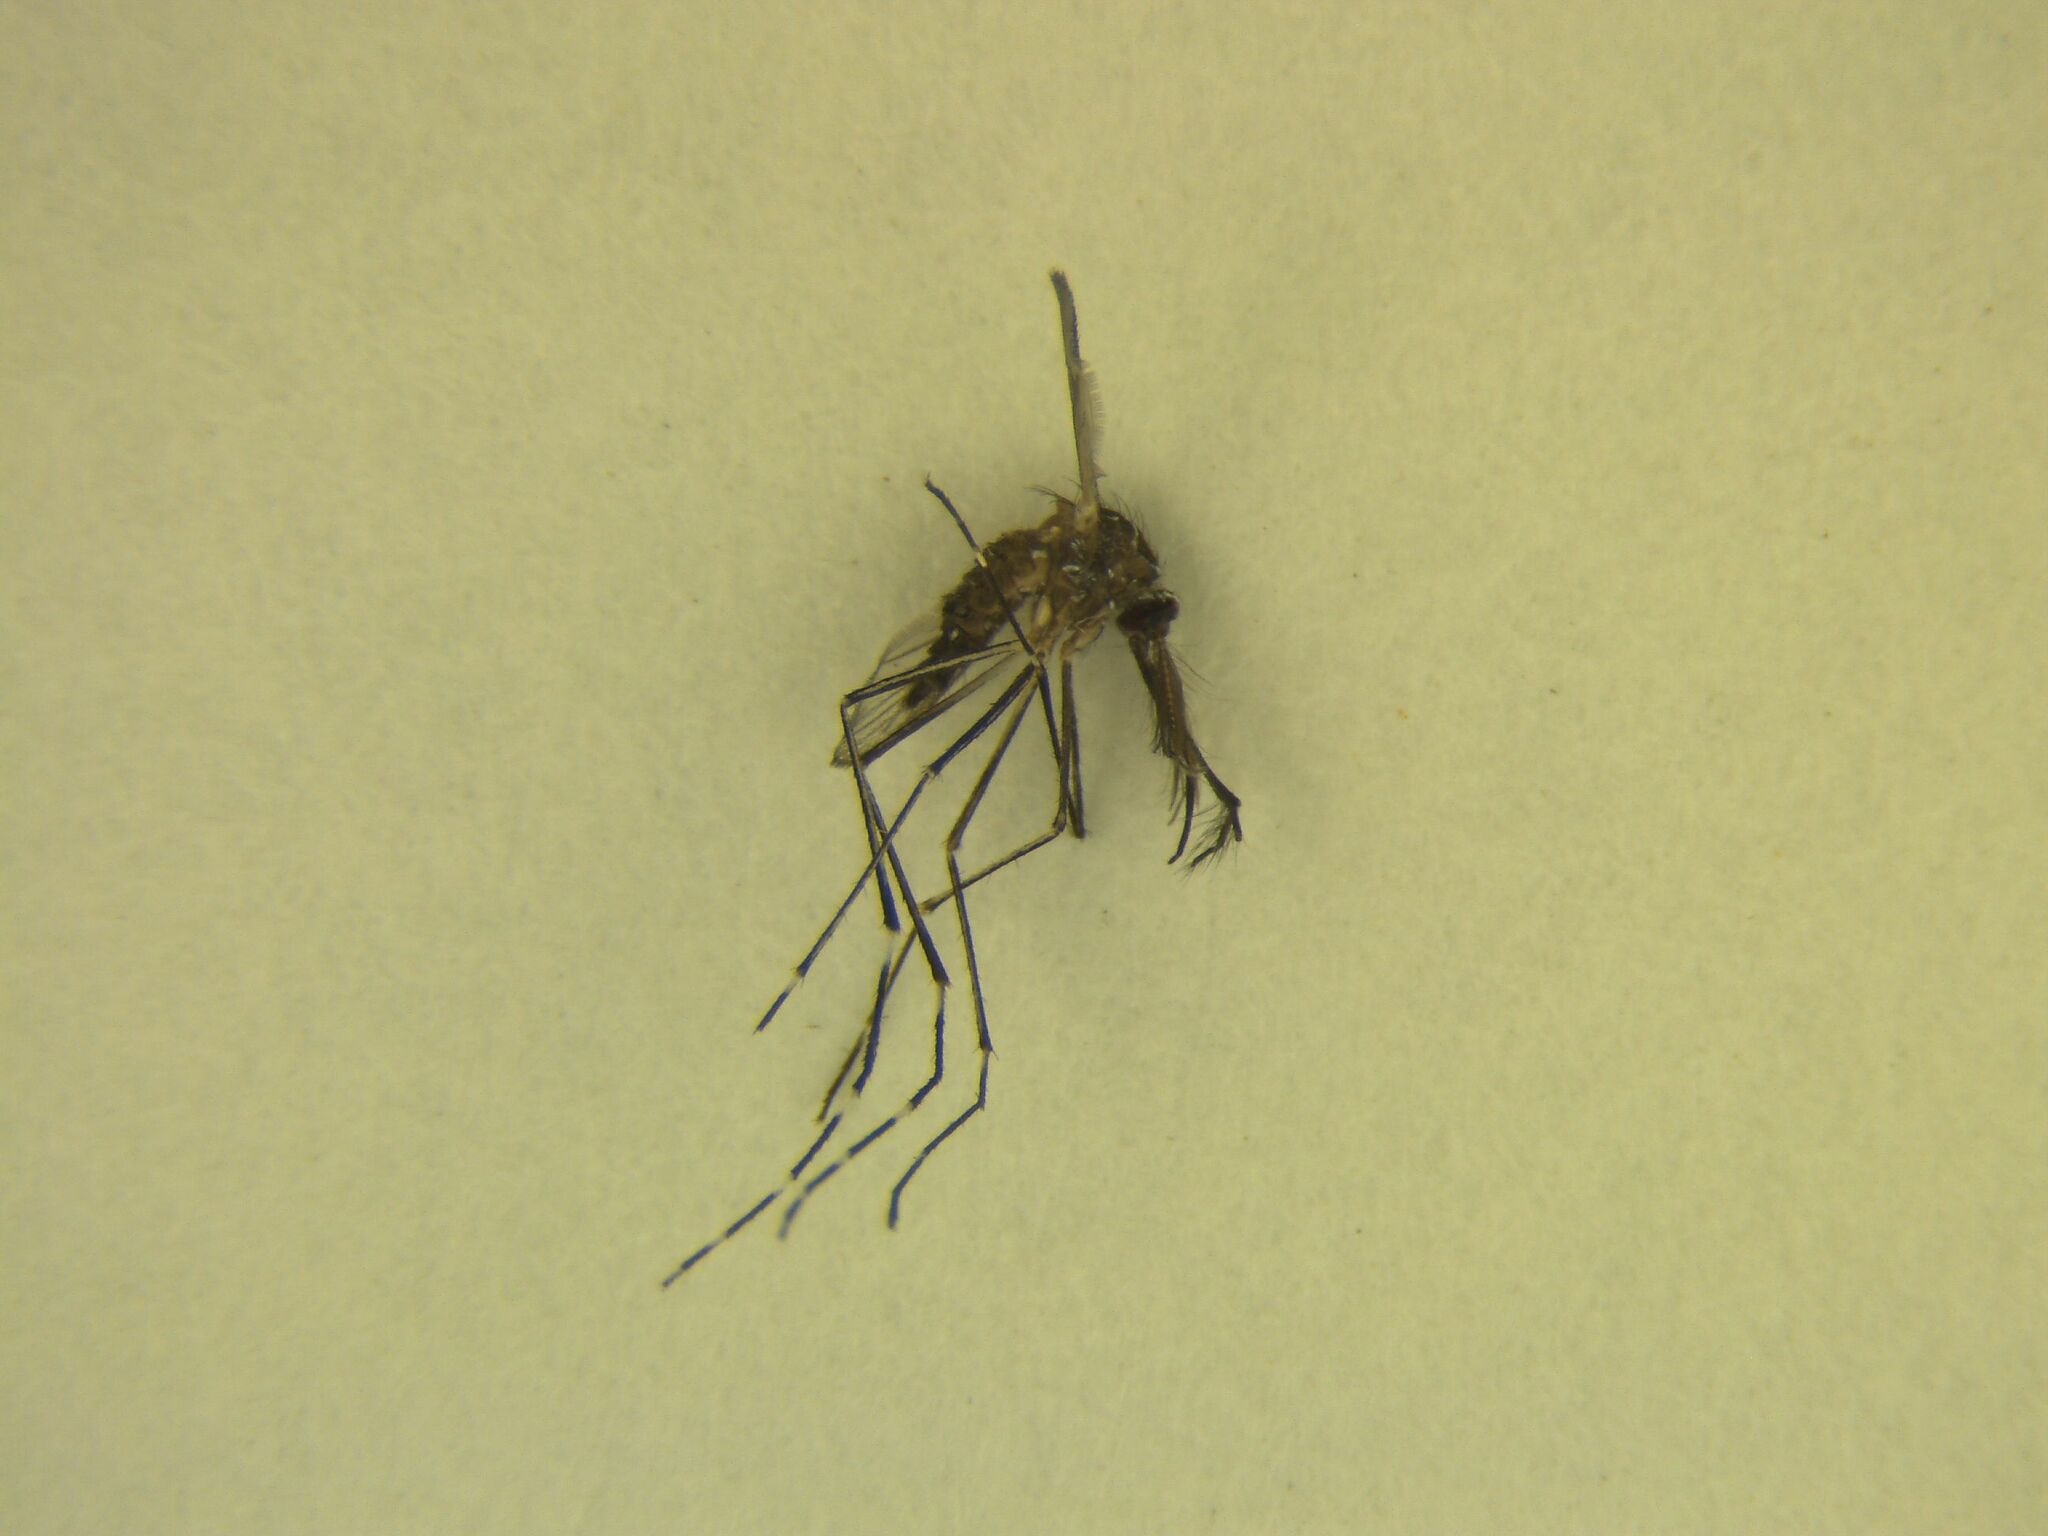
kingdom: Animalia
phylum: Arthropoda
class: Insecta
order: Diptera
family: Culicidae
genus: Aedes
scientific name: Aedes notoscriptus
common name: Australian backyard mosquito
